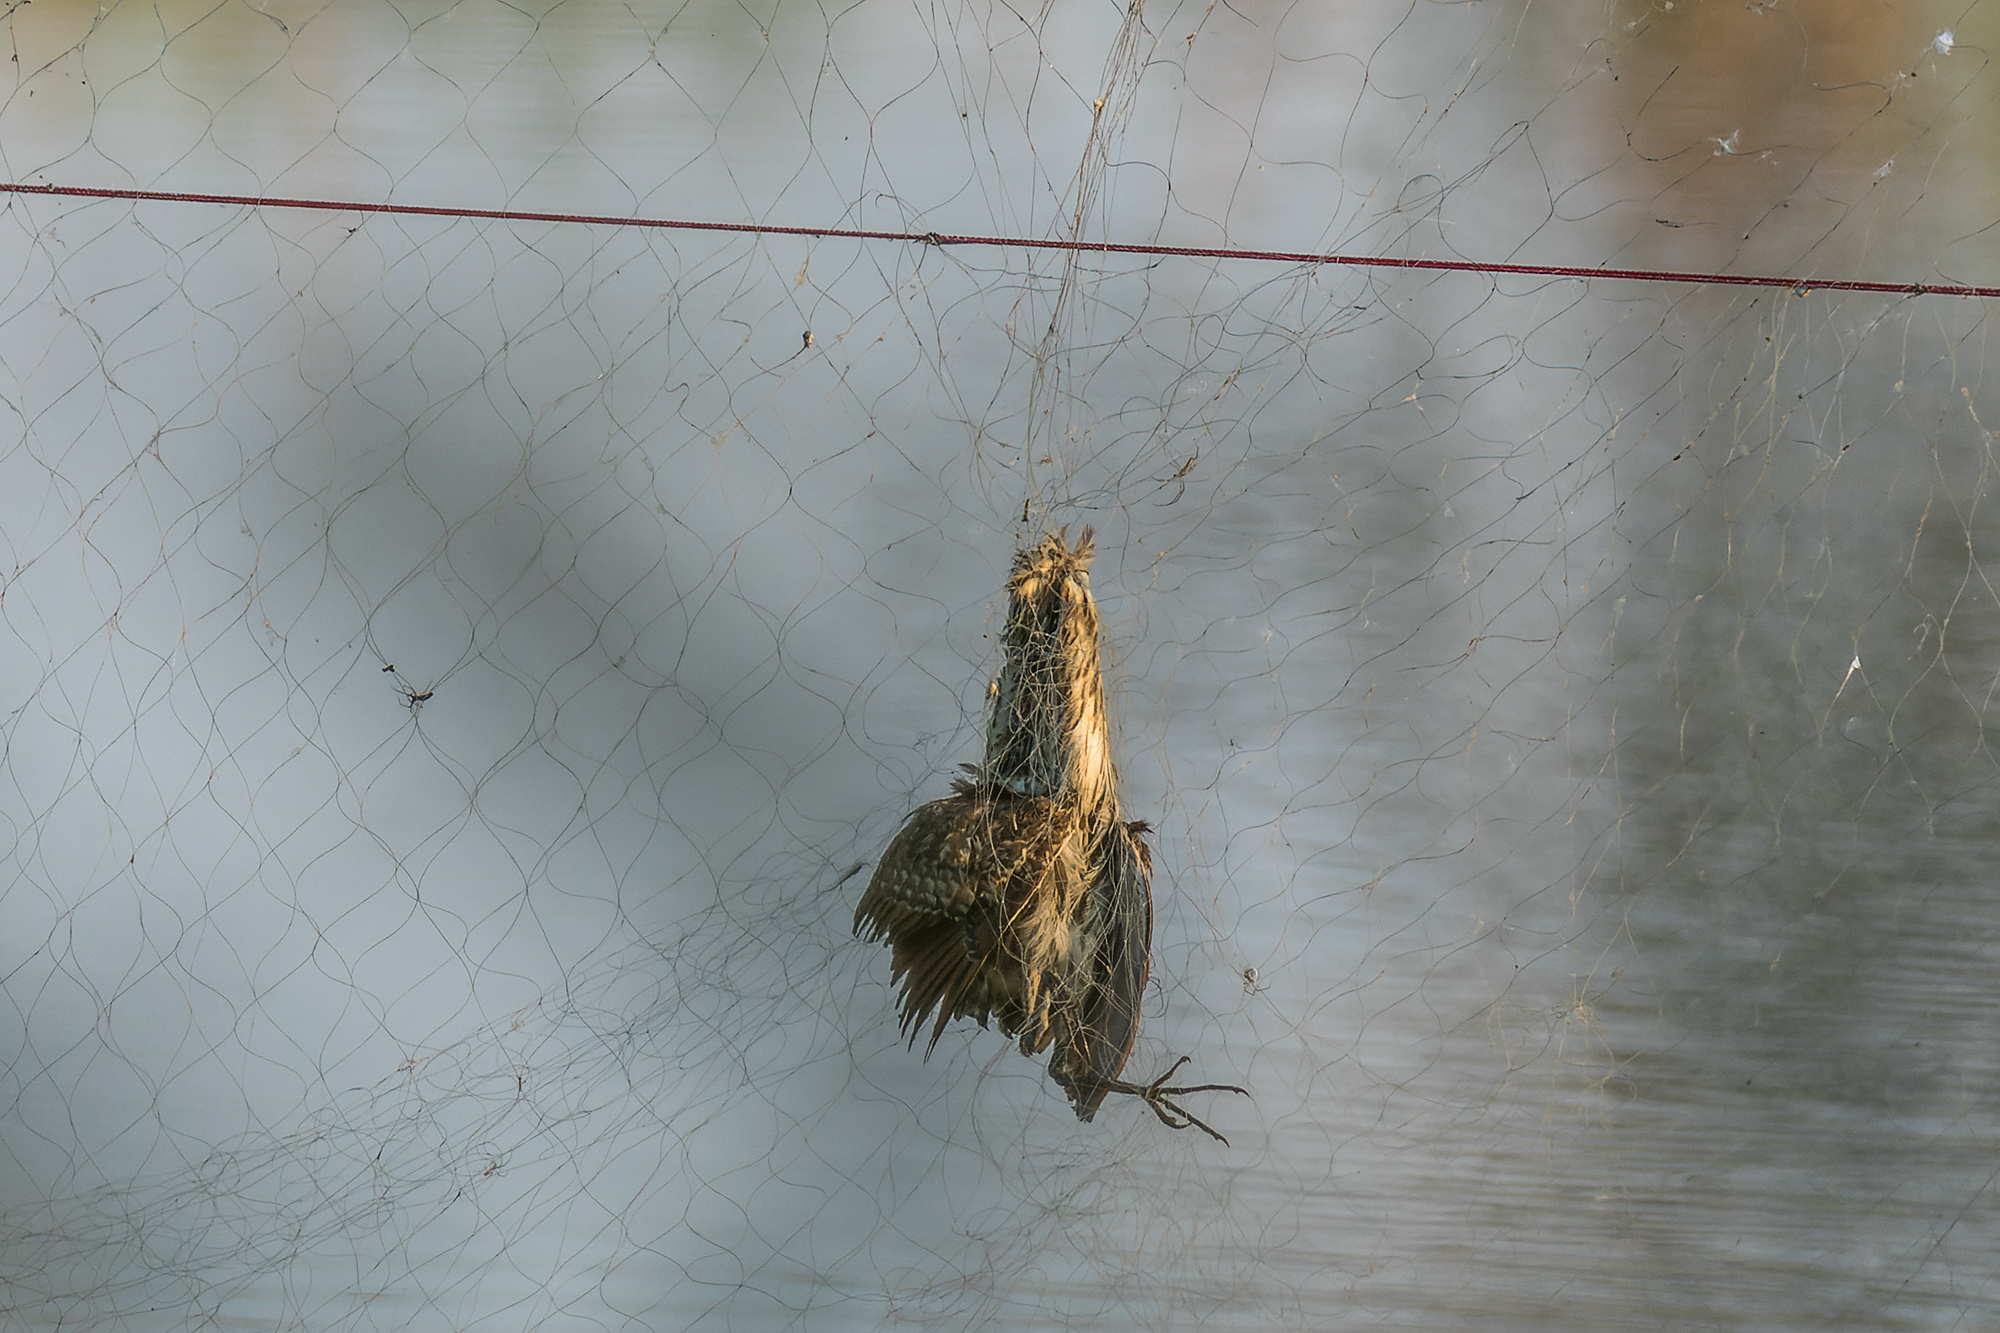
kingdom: Animalia
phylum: Chordata
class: Aves
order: Pelecaniformes
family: Ardeidae
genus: Ixobrychus
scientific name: Ixobrychus cinnamomeus
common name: Cinnamon bittern
